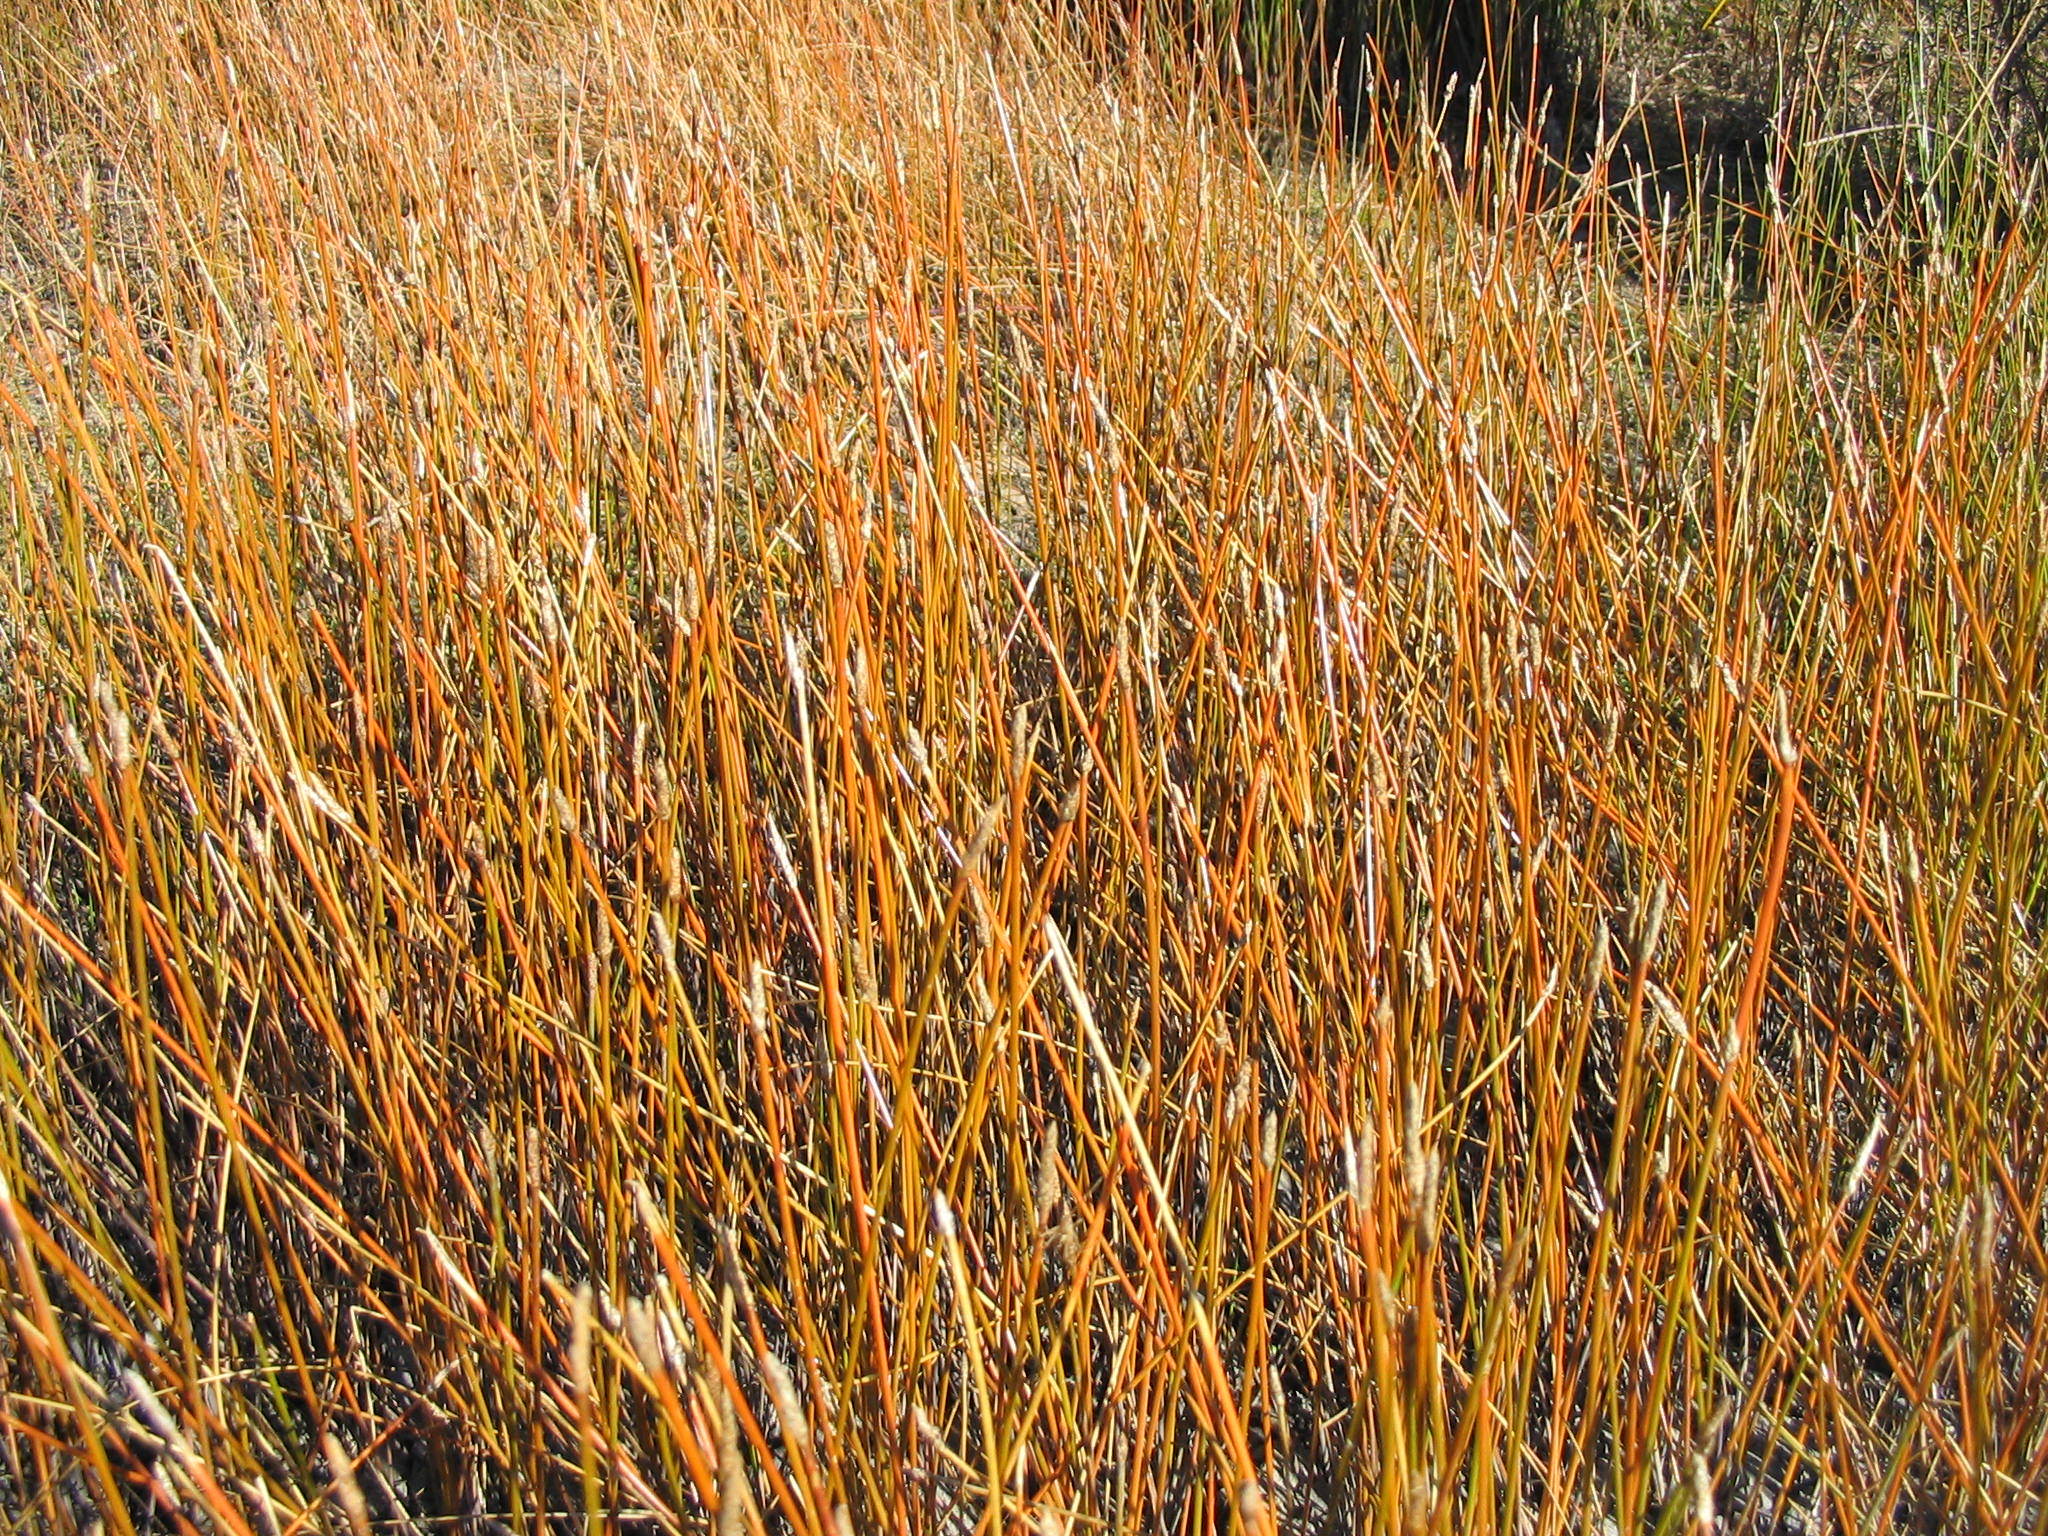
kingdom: Plantae
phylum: Tracheophyta
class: Liliopsida
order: Poales
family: Cyperaceae
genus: Eleocharis
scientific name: Eleocharis acuta
